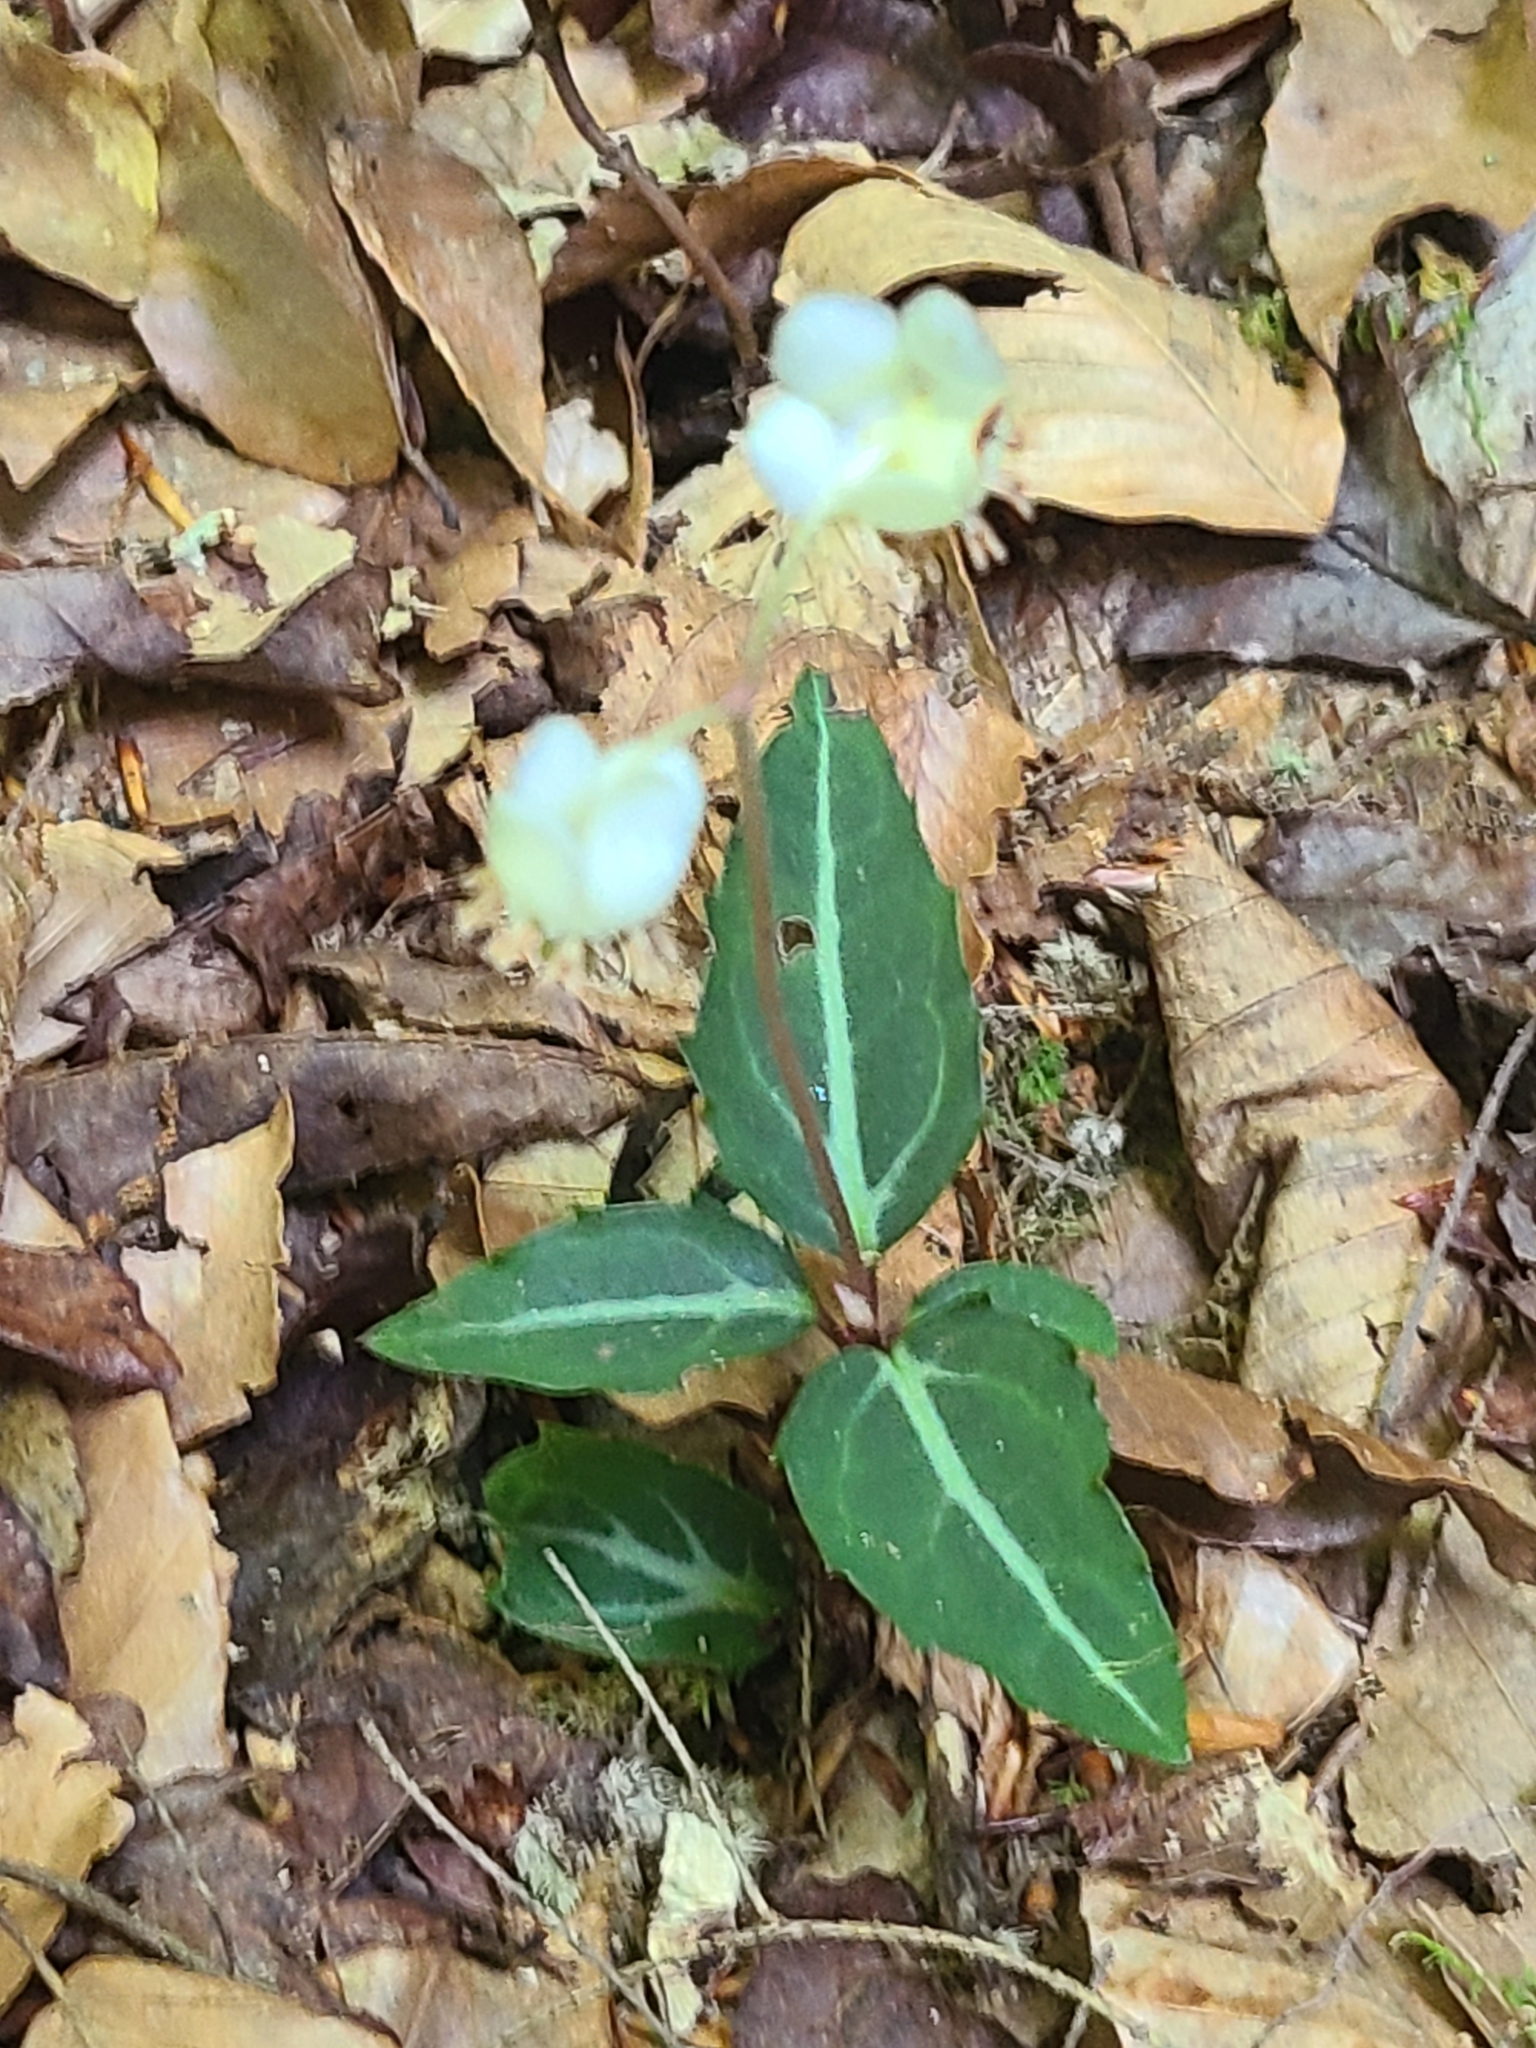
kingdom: Plantae
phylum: Tracheophyta
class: Magnoliopsida
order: Ericales
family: Ericaceae
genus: Chimaphila
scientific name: Chimaphila maculata
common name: Spotted pipsissewa
